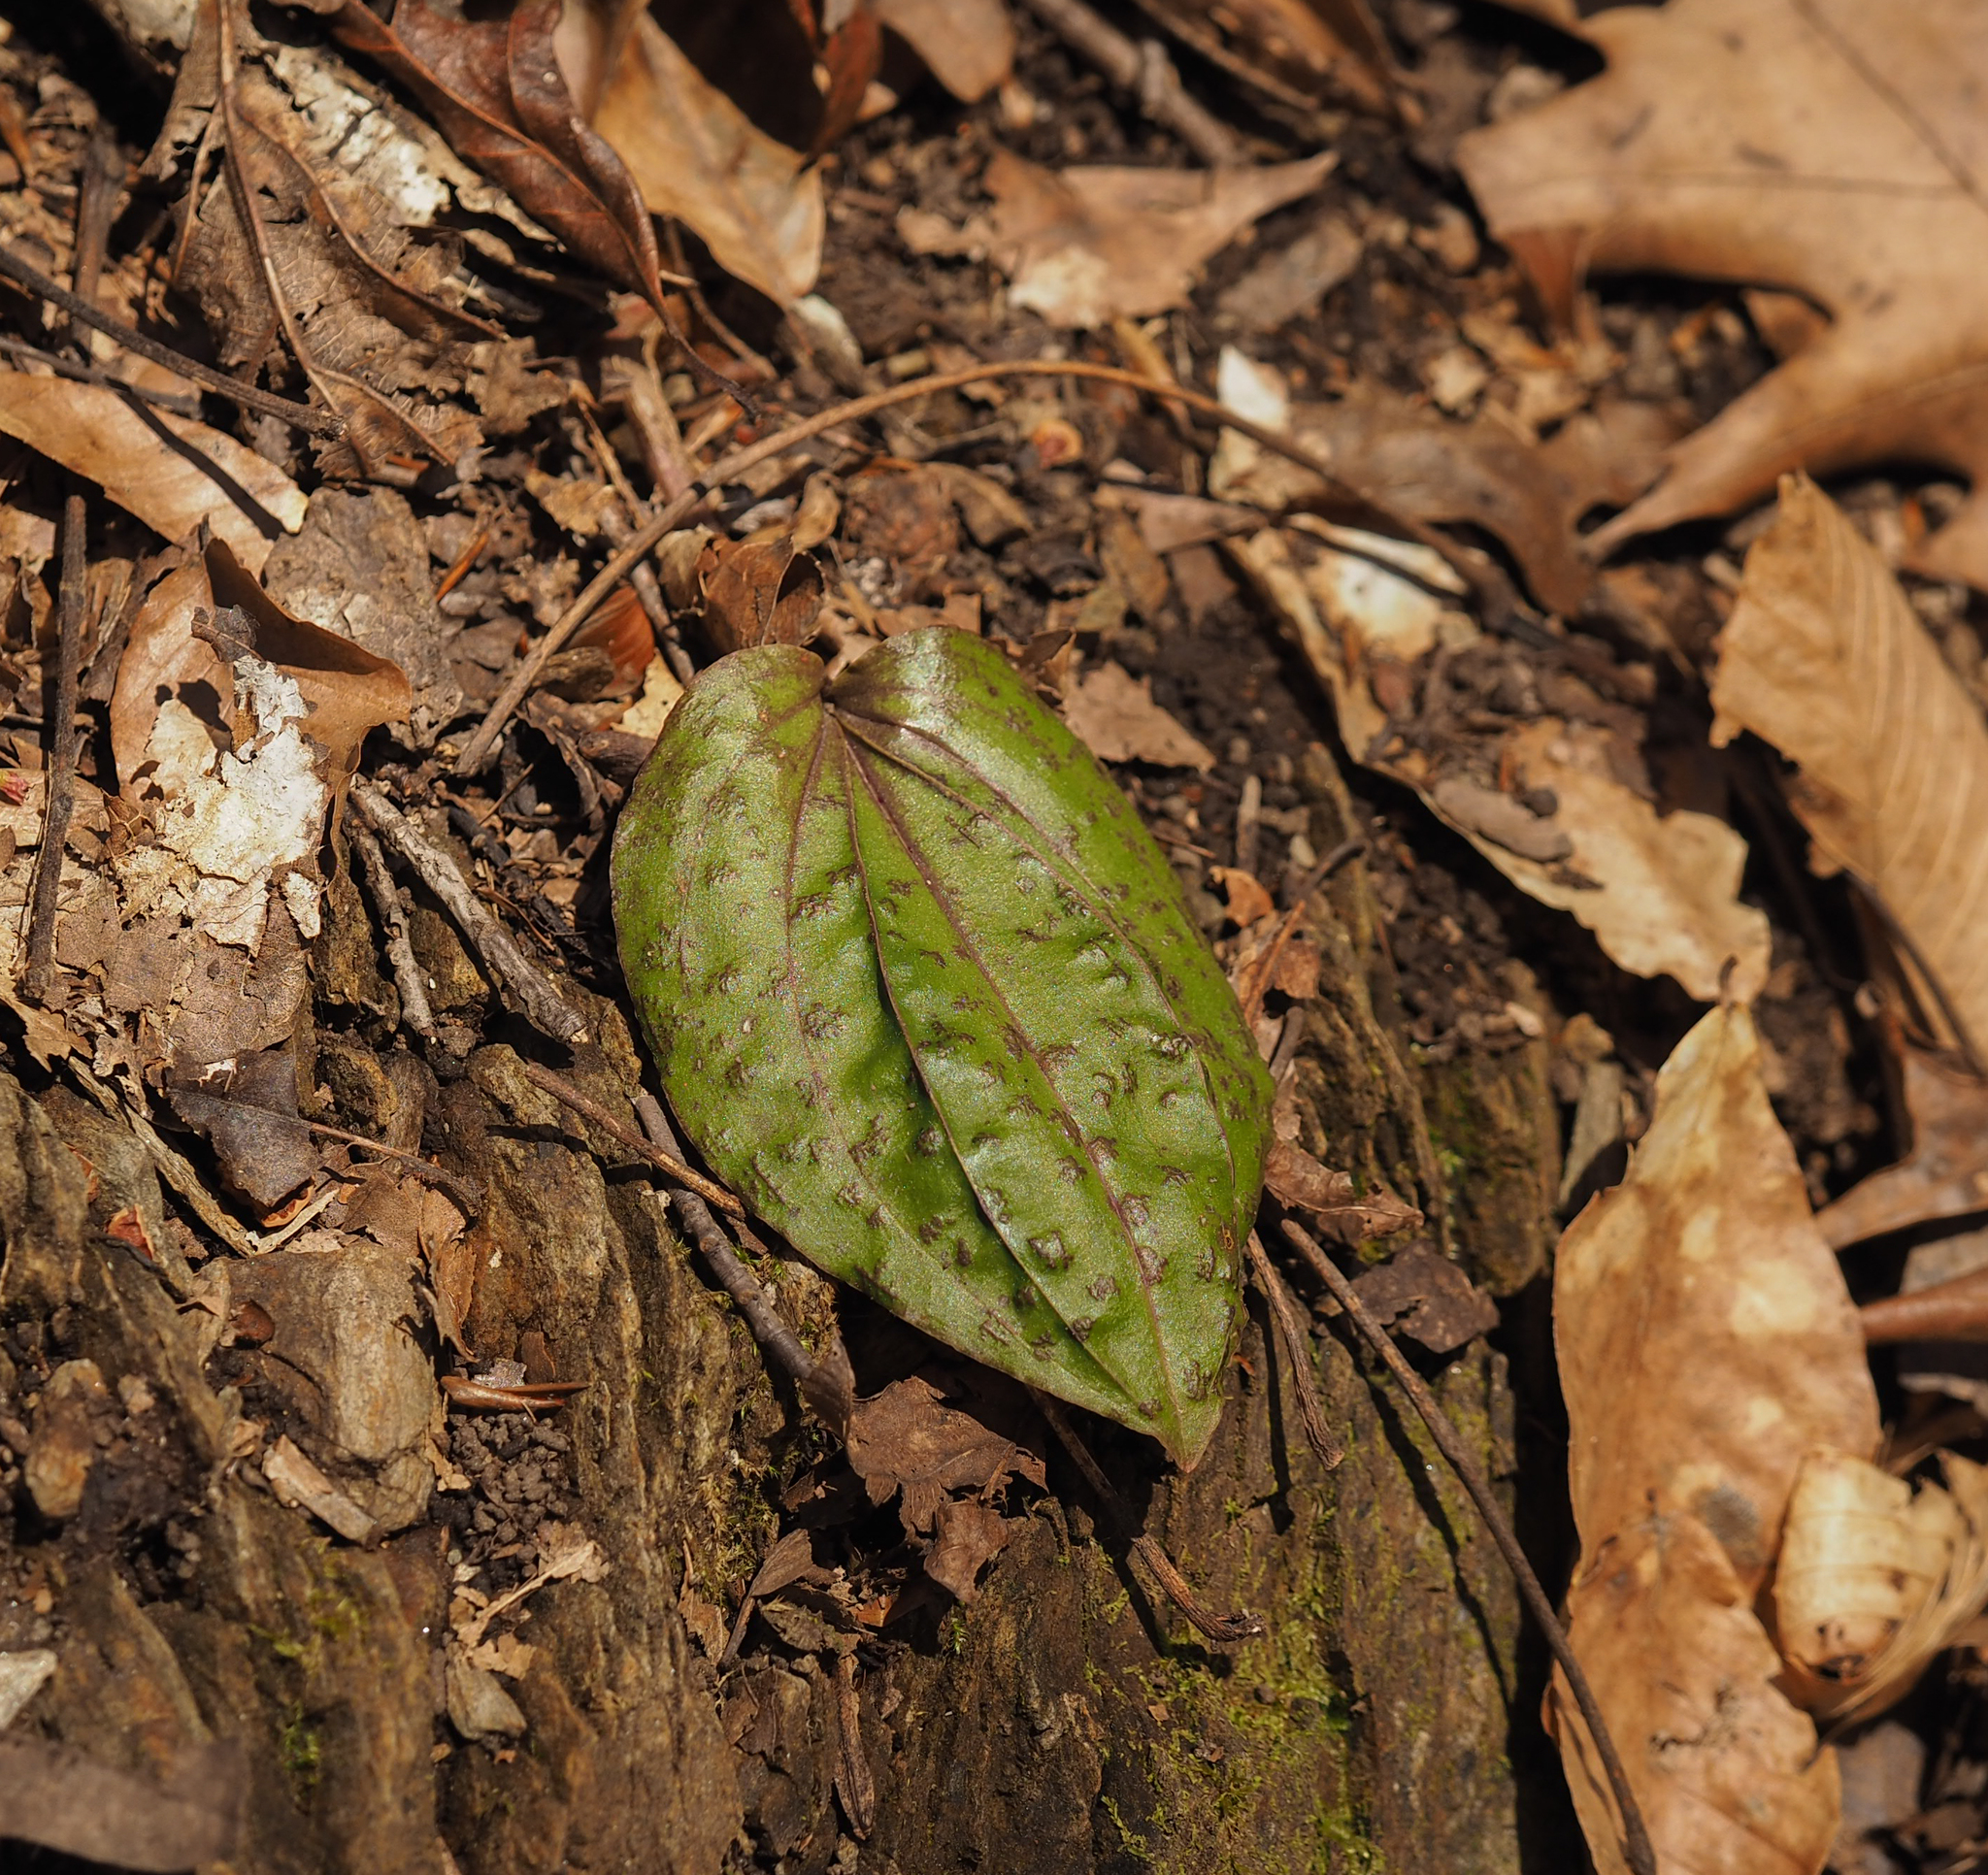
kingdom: Plantae
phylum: Tracheophyta
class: Liliopsida
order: Asparagales
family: Orchidaceae
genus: Tipularia
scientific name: Tipularia discolor
